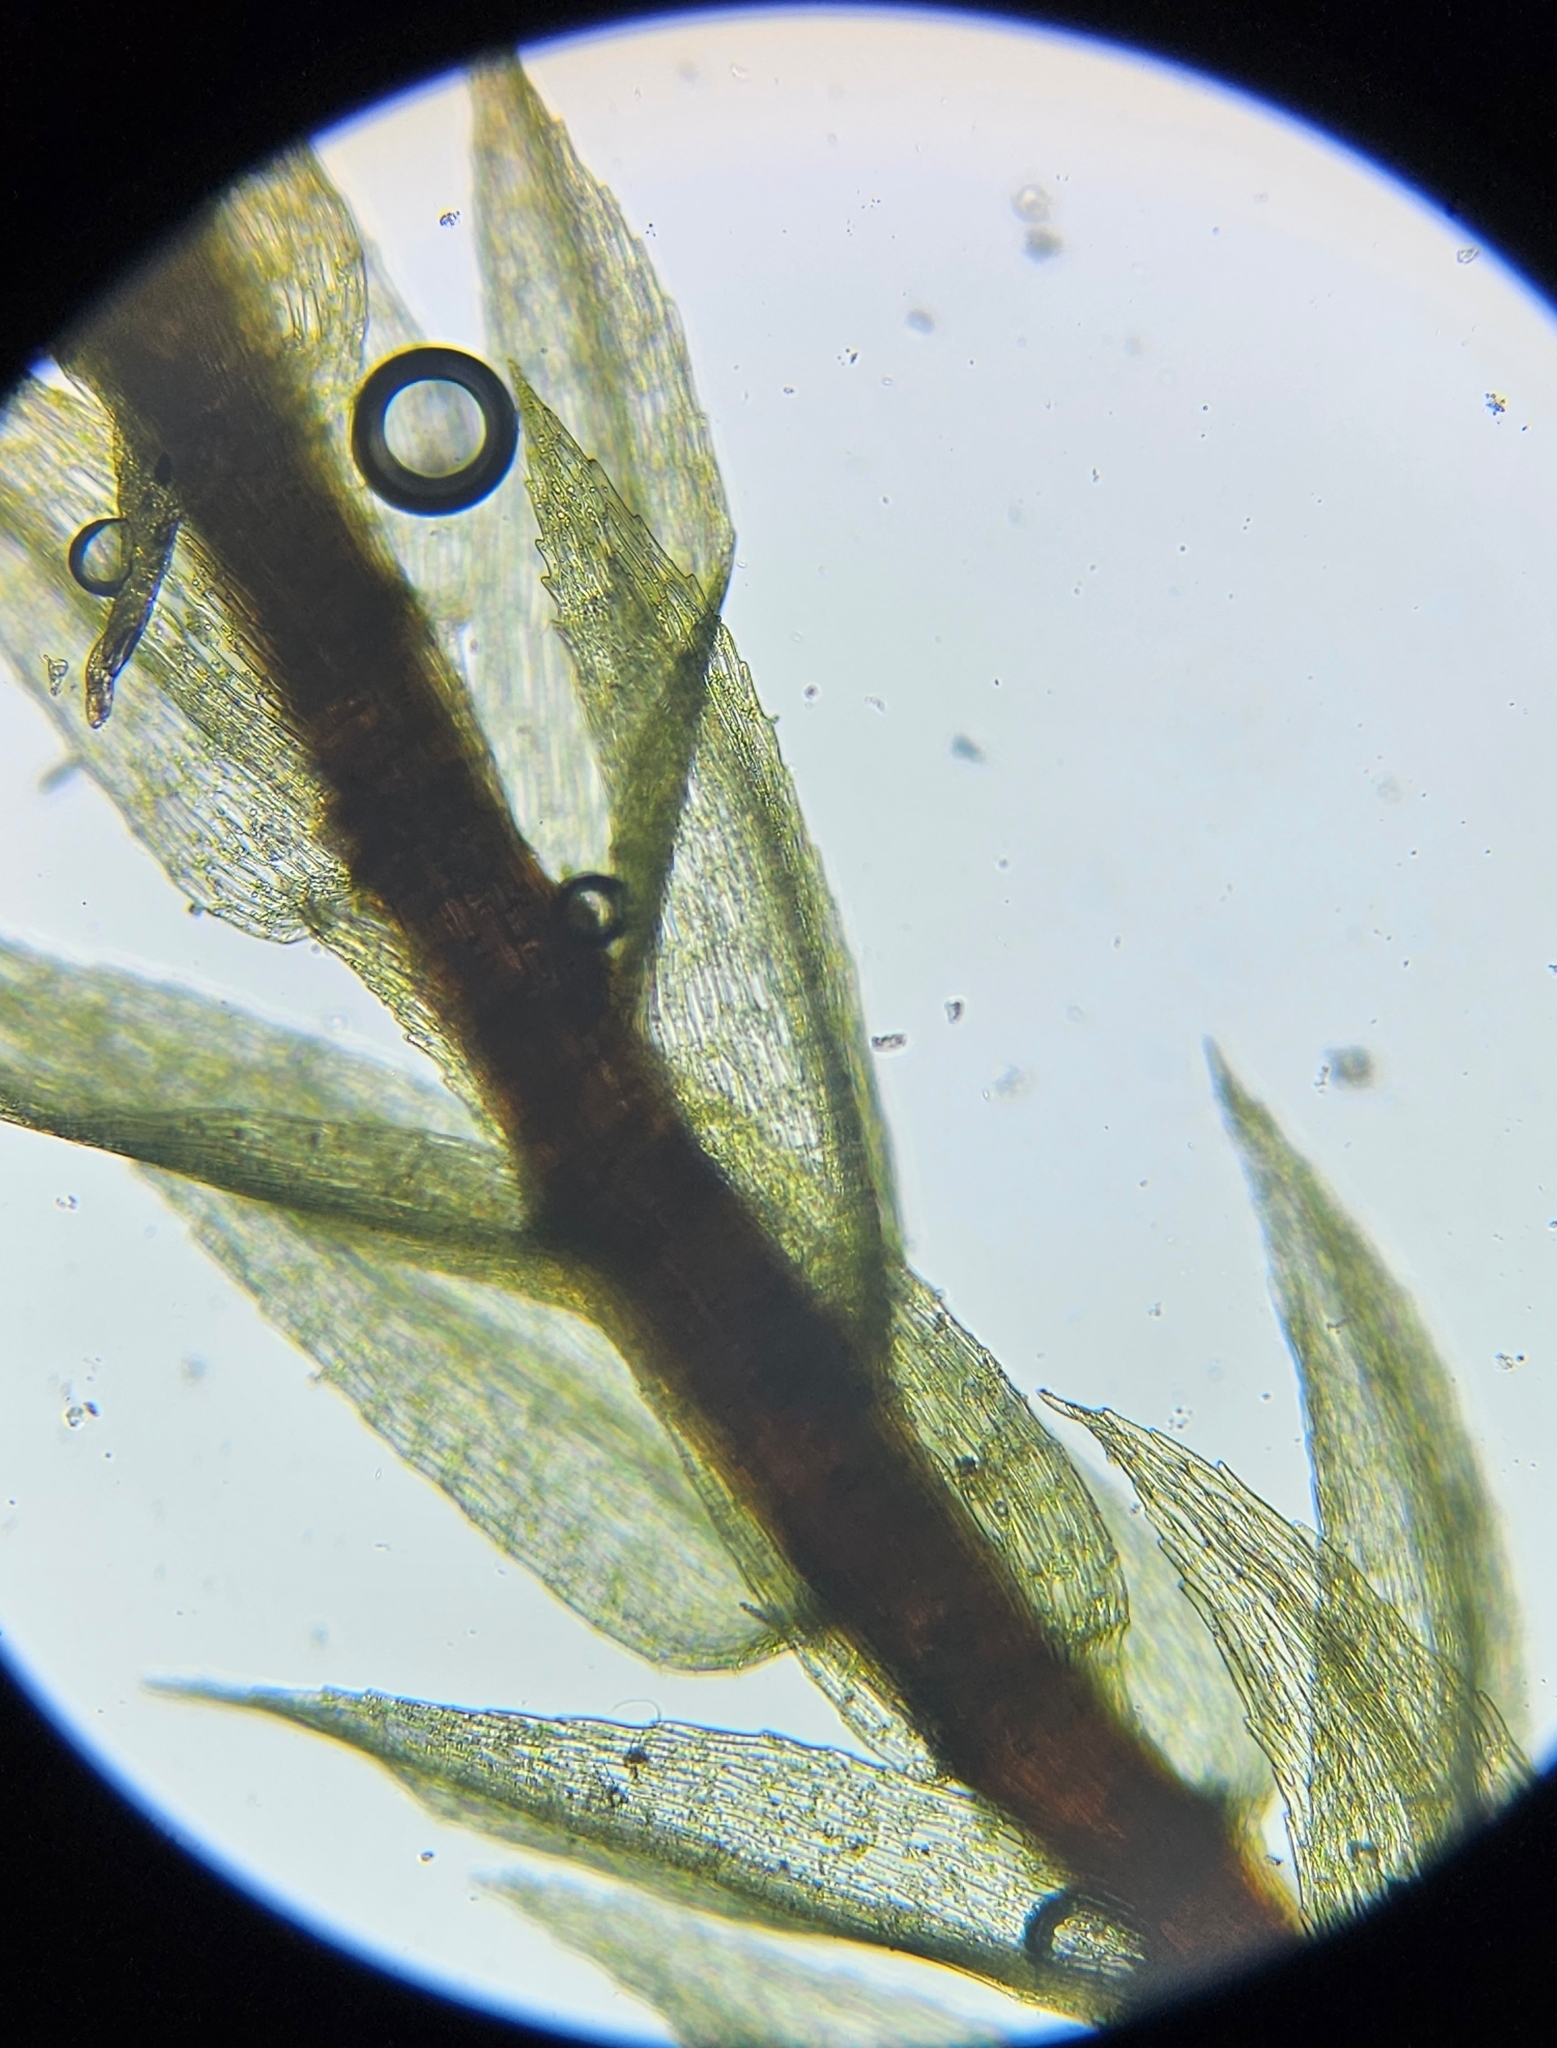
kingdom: Plantae
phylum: Bryophyta
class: Bryopsida
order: Bryales
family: Mniaceae
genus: Pohlia
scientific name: Pohlia melanodon
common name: Black-toothed nodding moss
